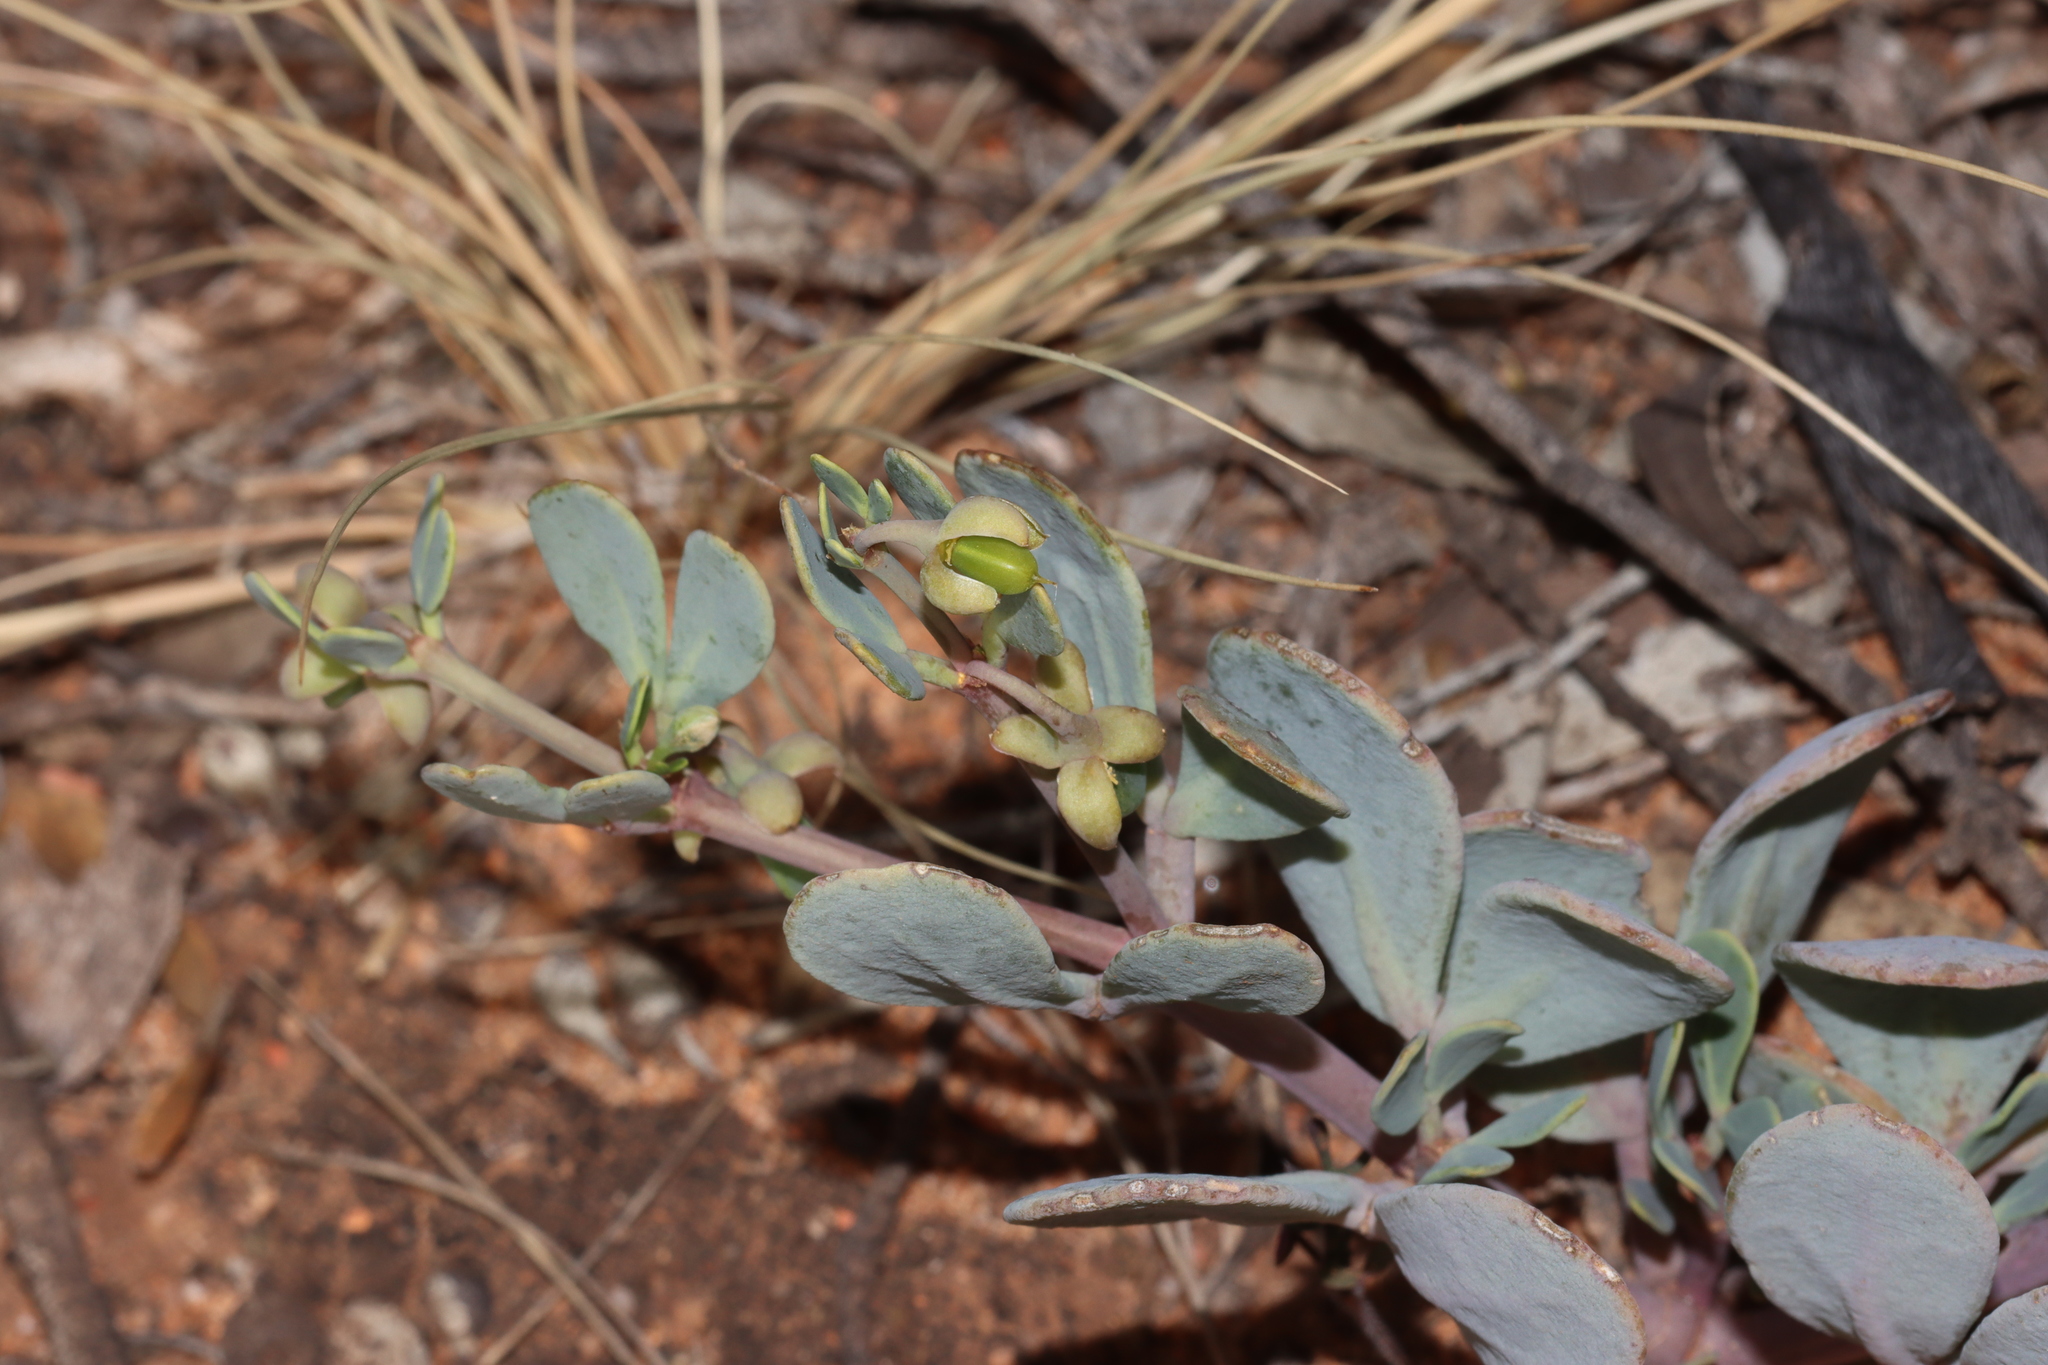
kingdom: Plantae
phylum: Tracheophyta
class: Magnoliopsida
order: Zygophyllales
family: Zygophyllaceae
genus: Roepera
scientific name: Roepera glauca
